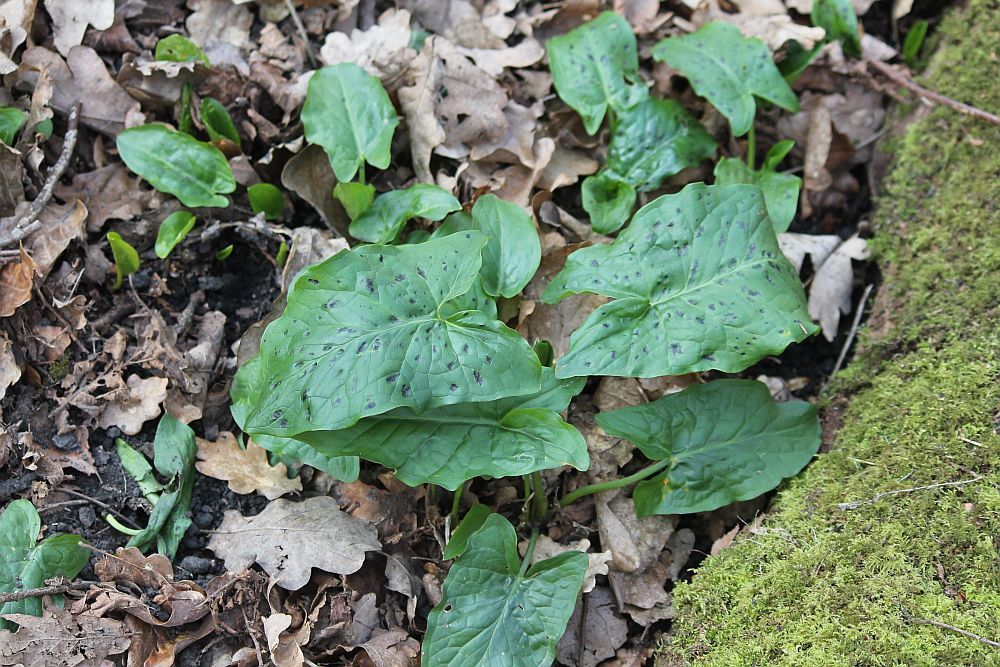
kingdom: Plantae
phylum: Tracheophyta
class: Liliopsida
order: Alismatales
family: Araceae
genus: Arum
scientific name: Arum maculatum
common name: Lords-and-ladies
